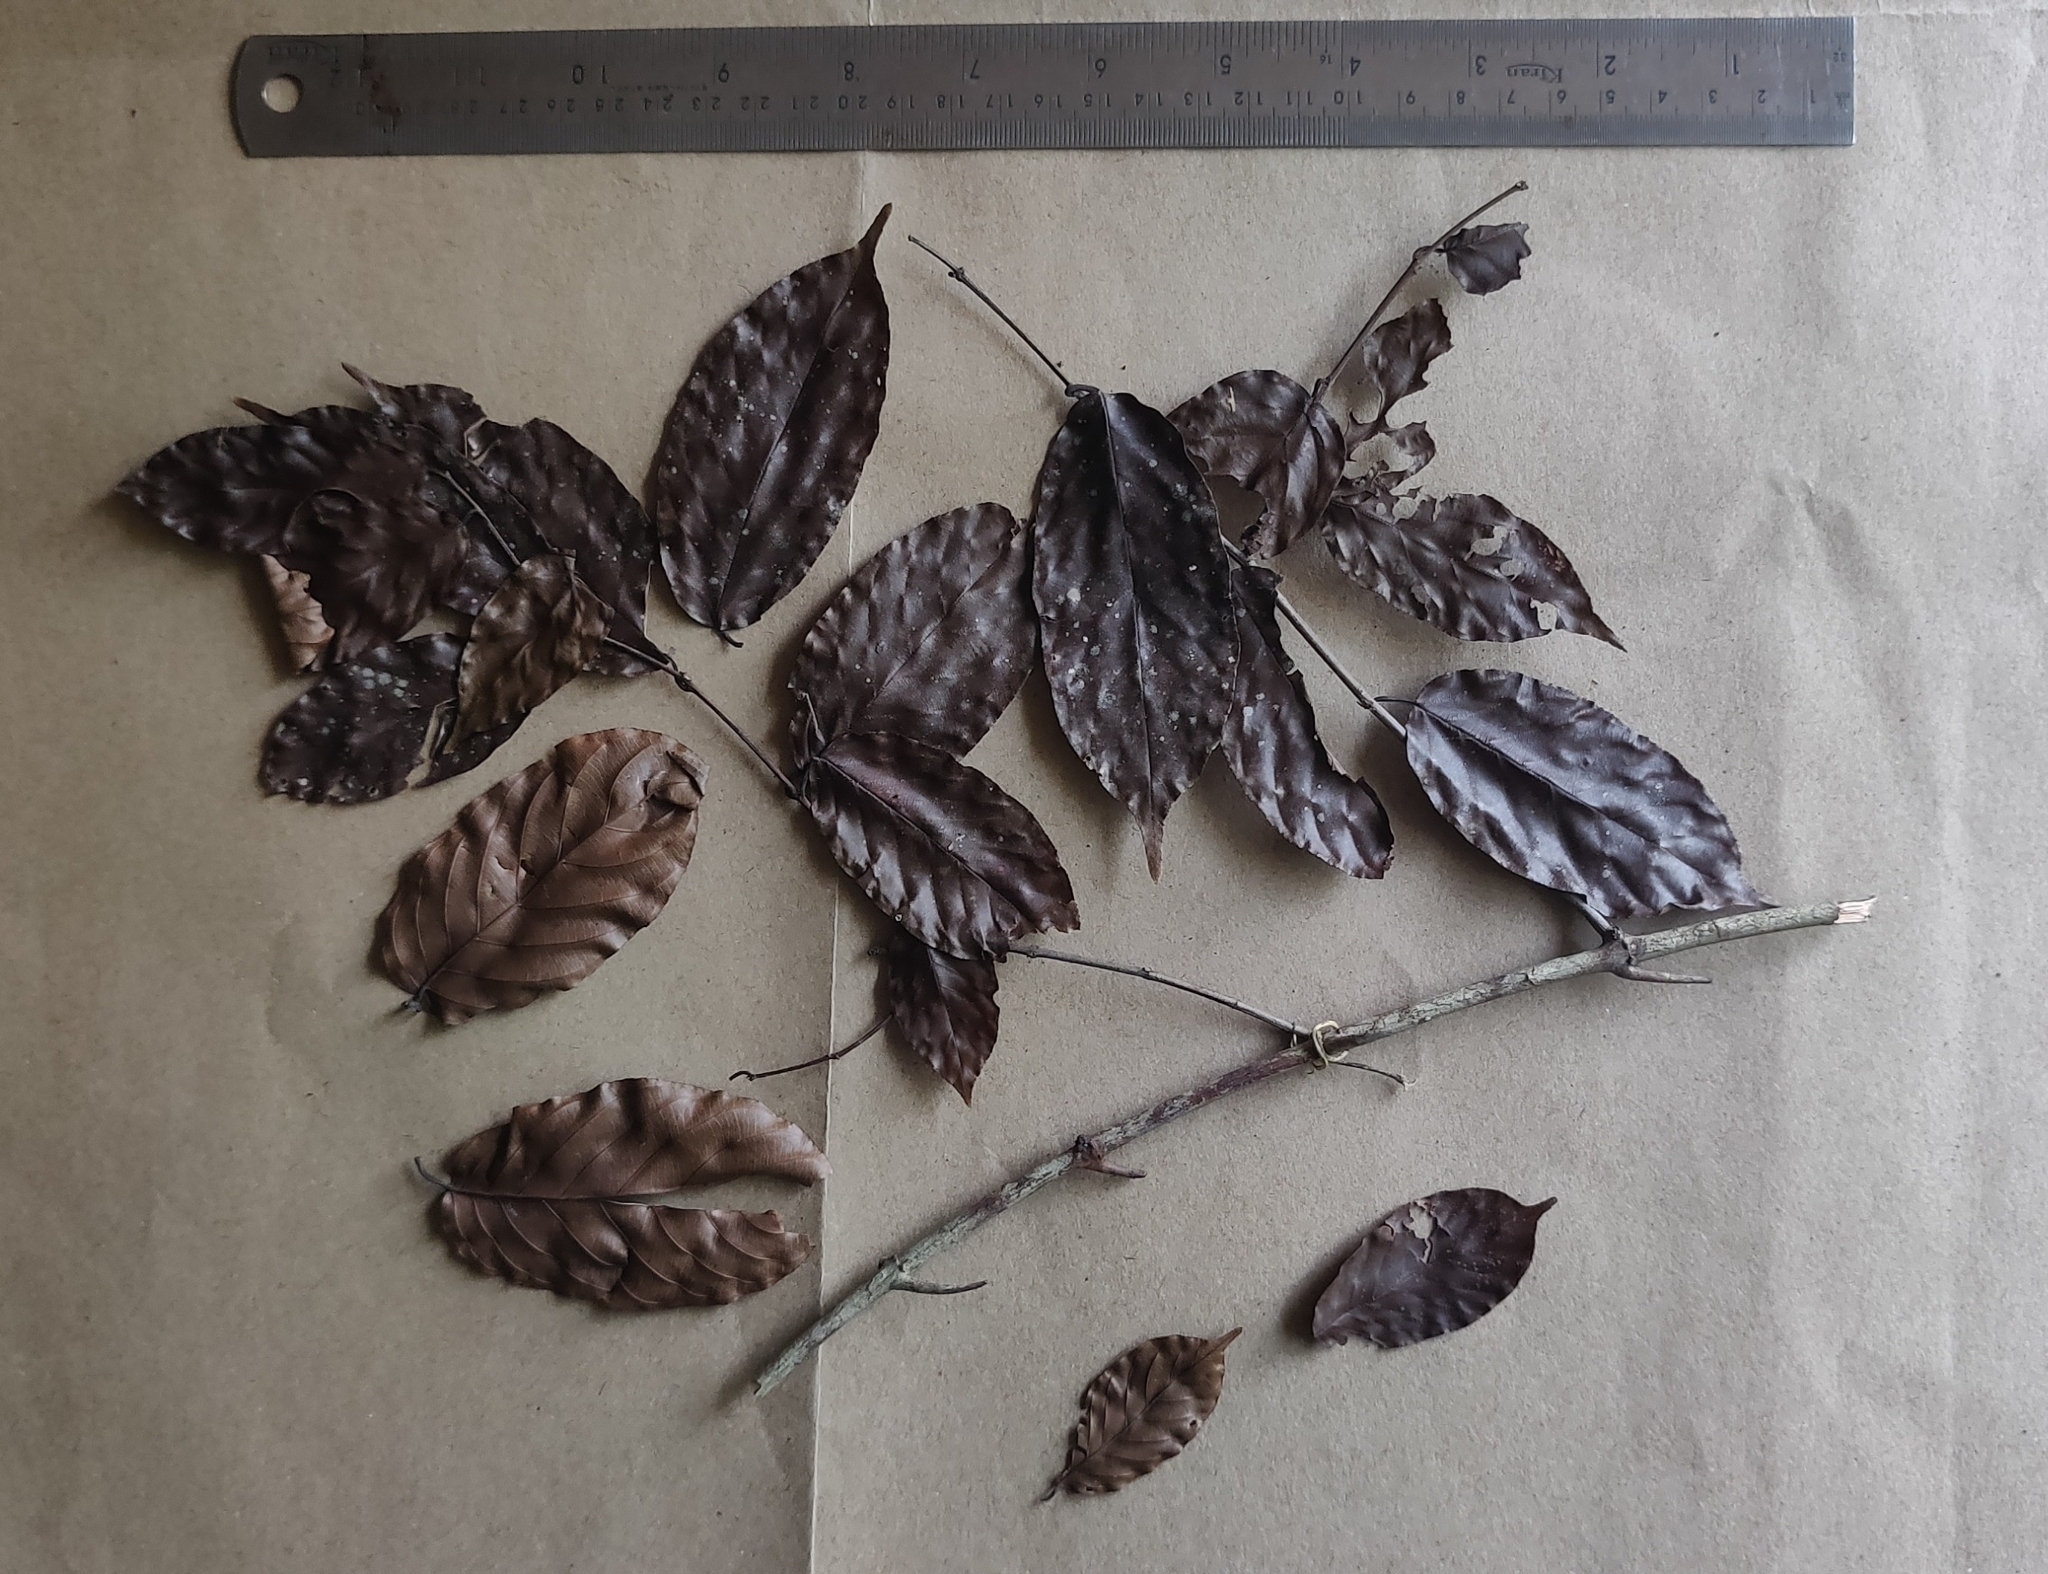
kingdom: Plantae
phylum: Tracheophyta
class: Magnoliopsida
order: Brassicales
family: Capparaceae
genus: Capparis
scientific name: Capparis moonii
